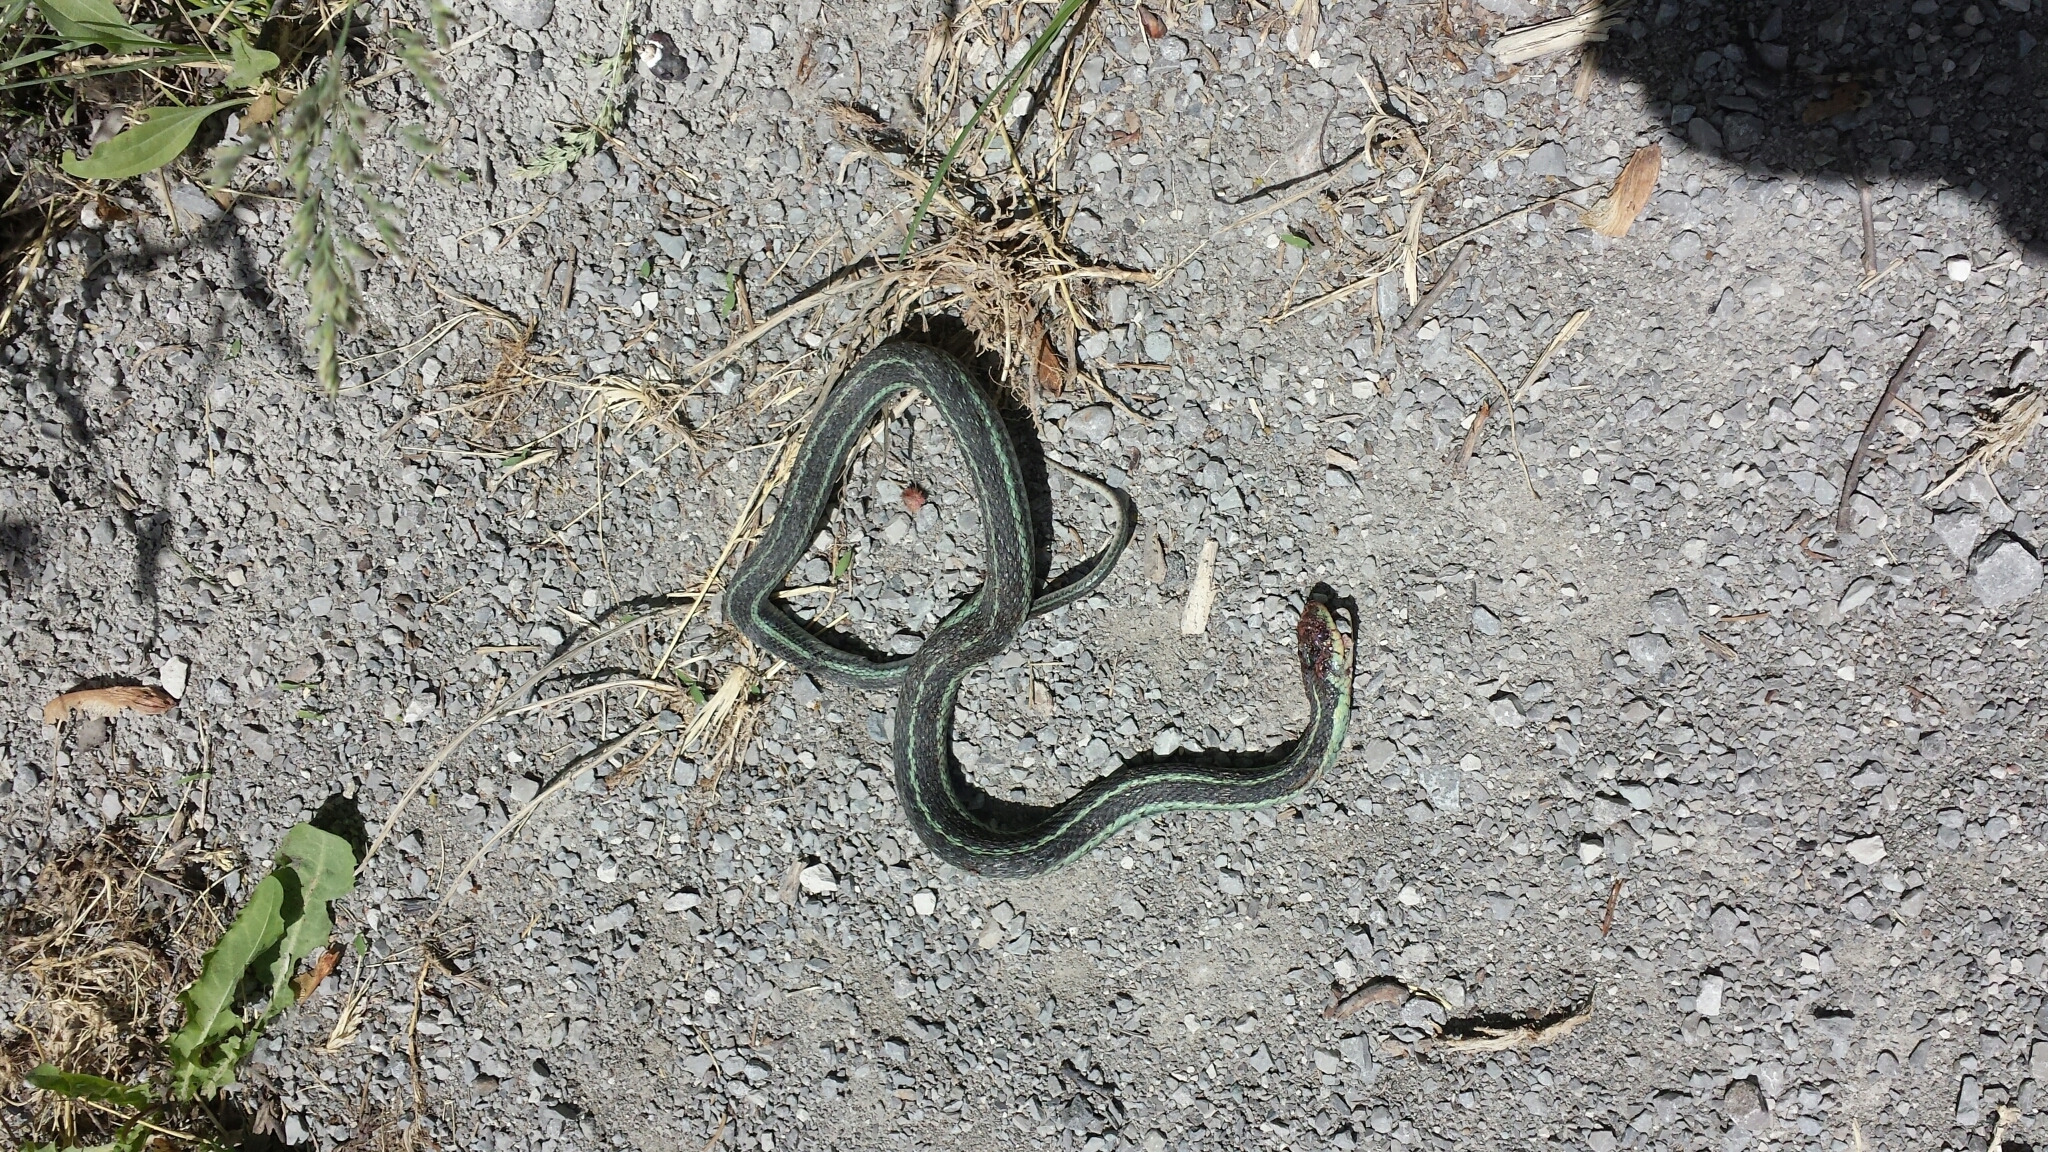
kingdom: Animalia
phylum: Chordata
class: Squamata
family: Colubridae
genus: Thamnophis
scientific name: Thamnophis sirtalis
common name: Common garter snake
